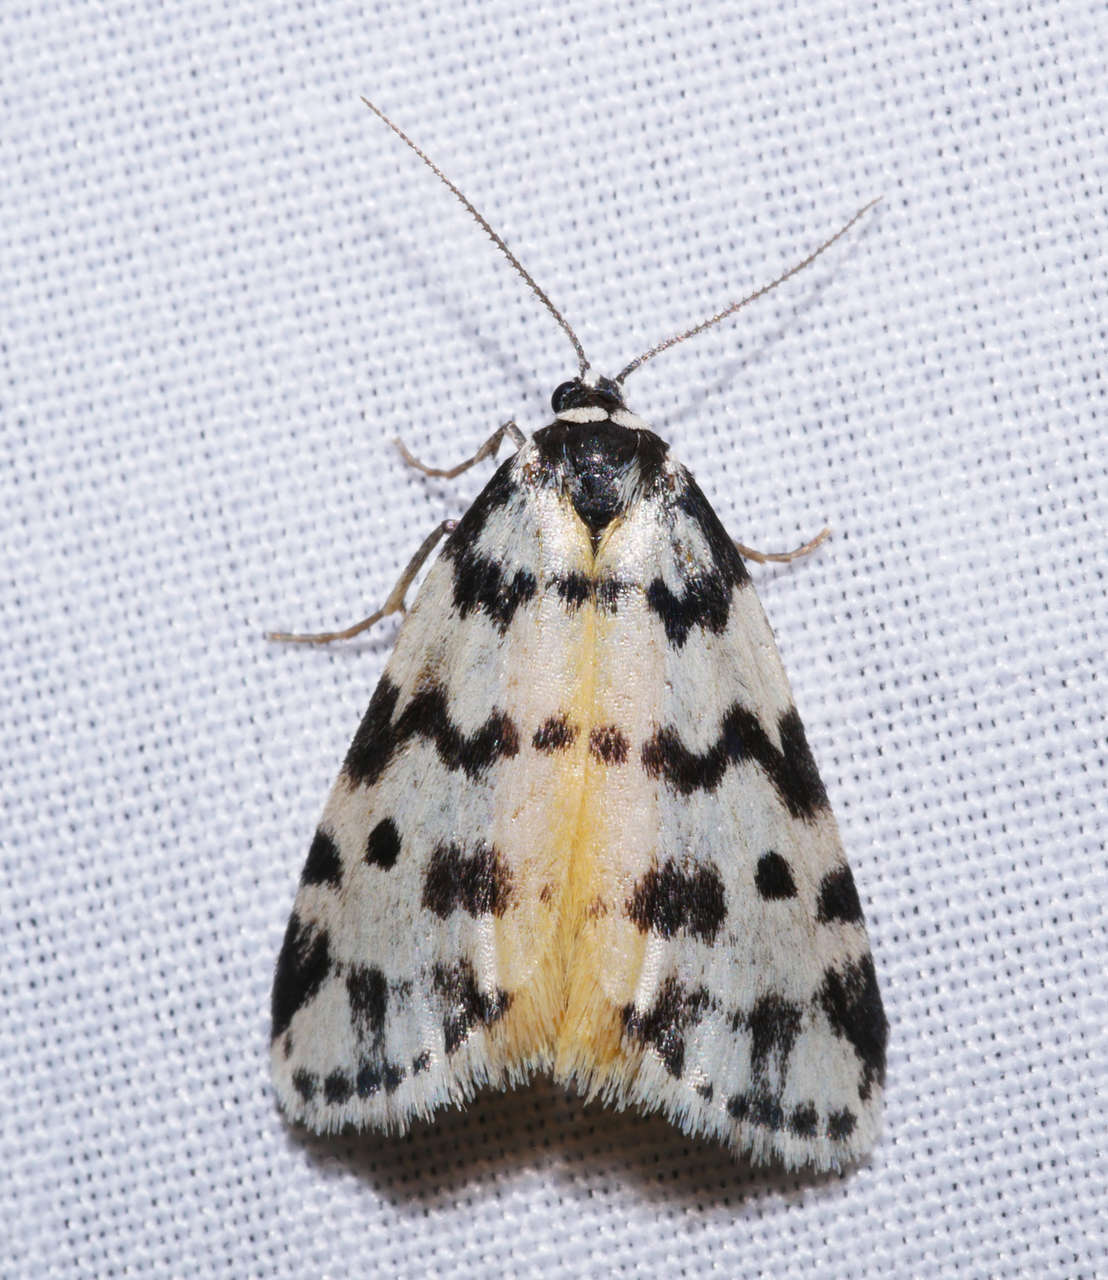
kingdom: Animalia
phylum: Arthropoda
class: Insecta
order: Lepidoptera
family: Erebidae
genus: Thallarcha
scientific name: Thallarcha jocularis
